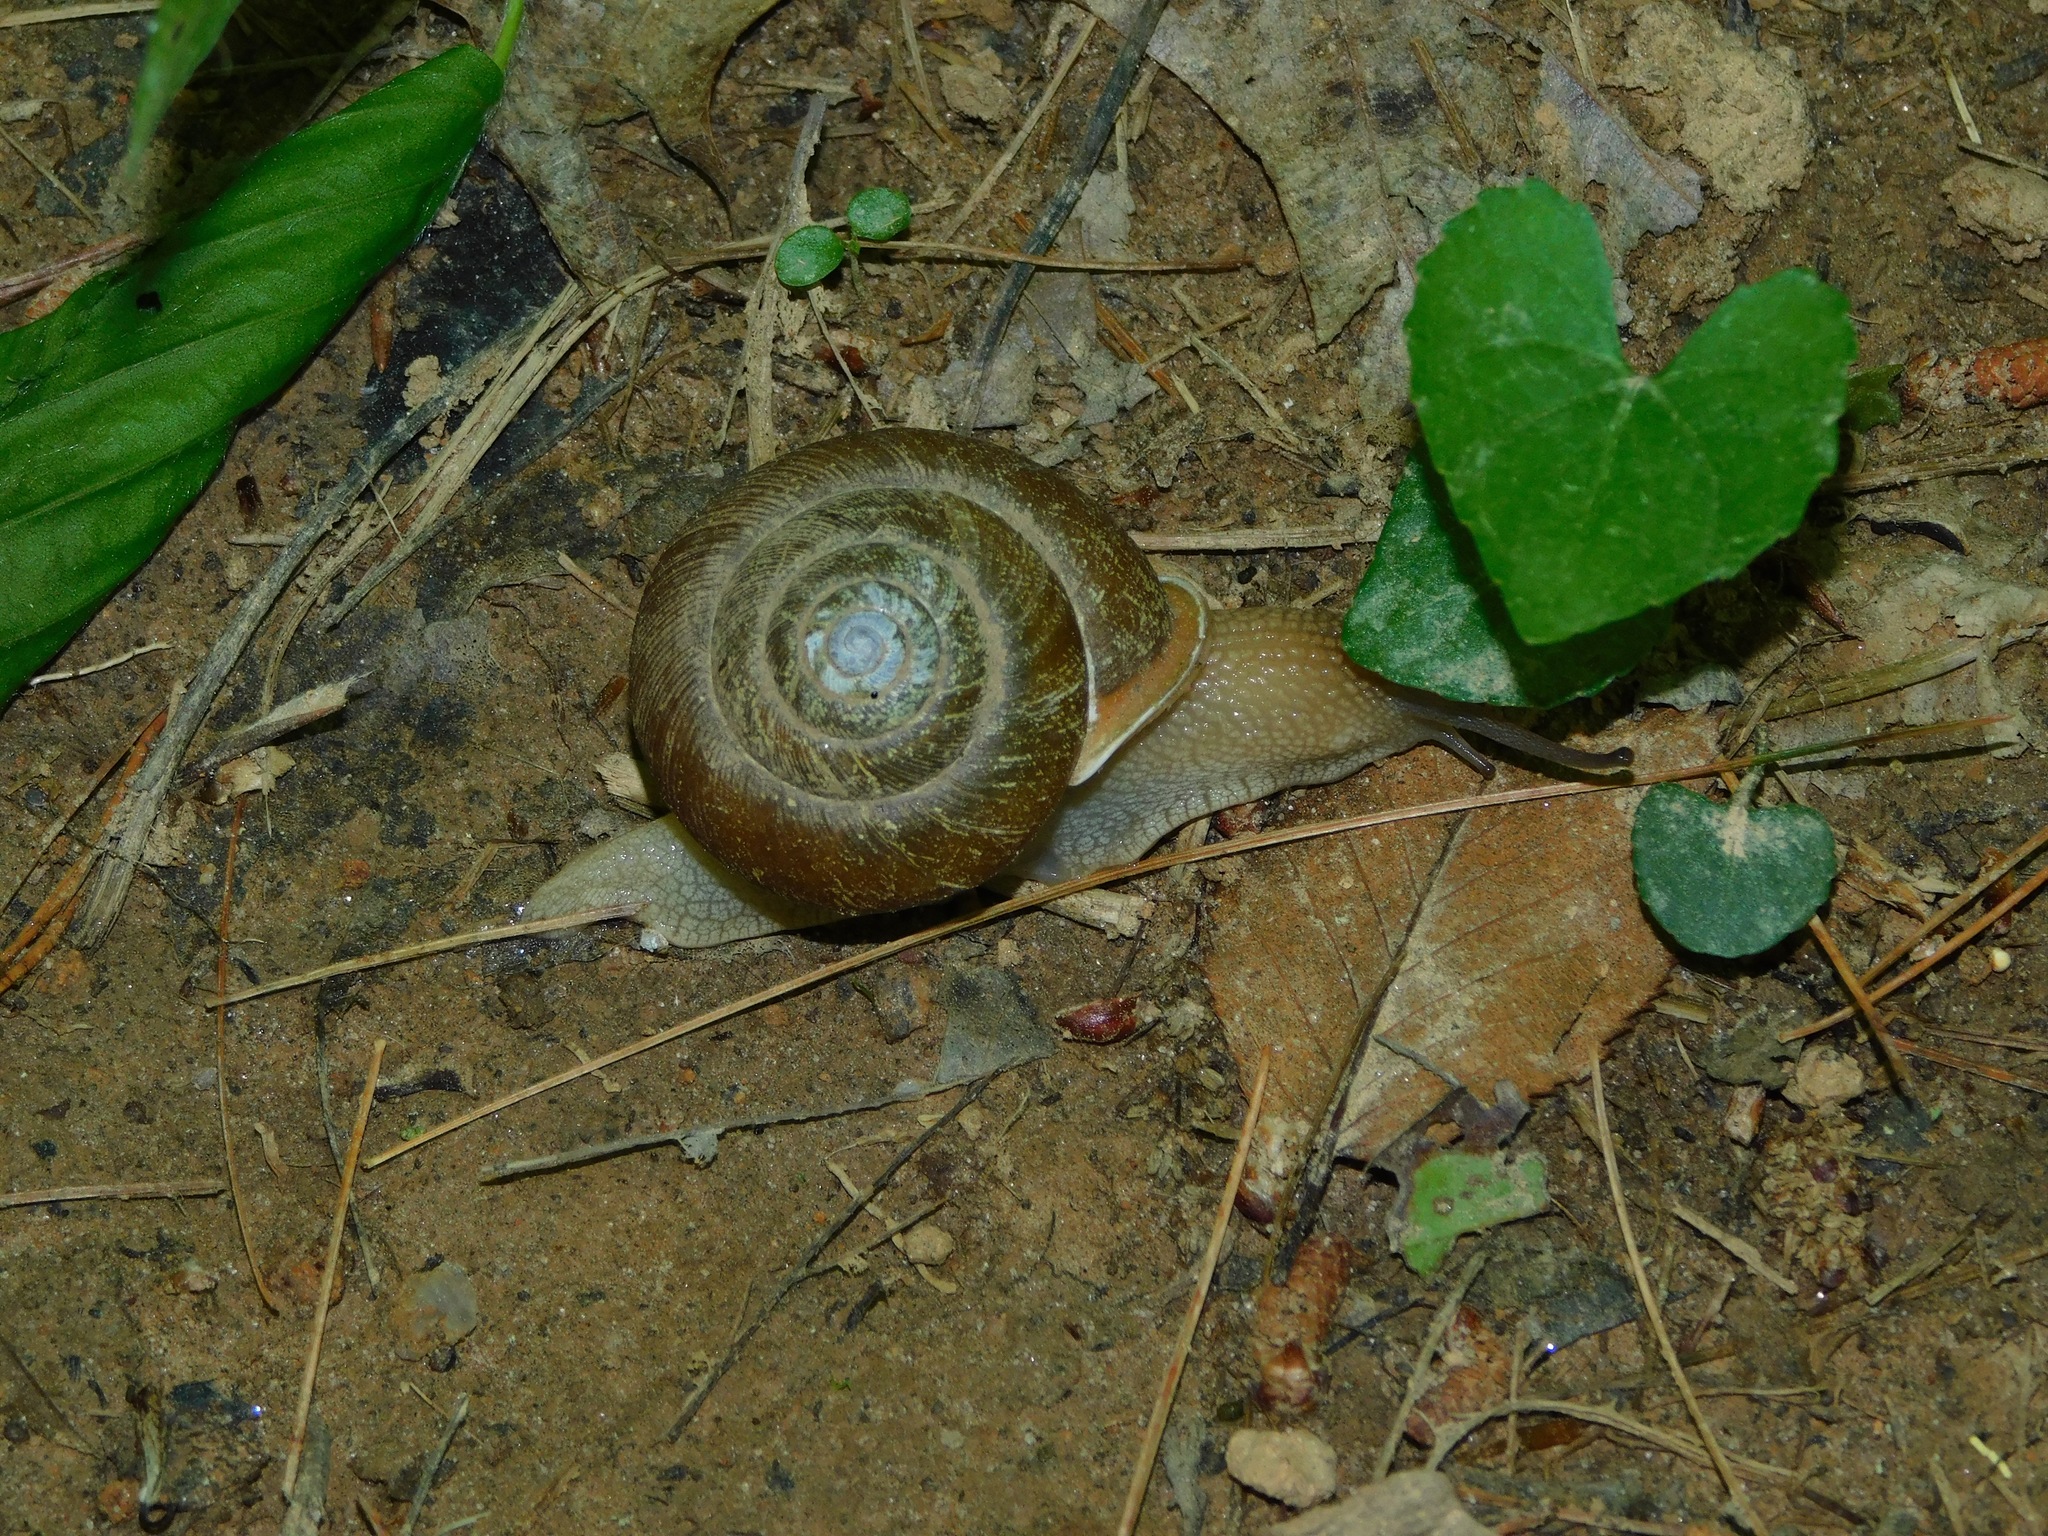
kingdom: Animalia
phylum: Mollusca
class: Gastropoda
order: Stylommatophora
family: Polygyridae
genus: Neohelix
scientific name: Neohelix major
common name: Southeastern whitelip
